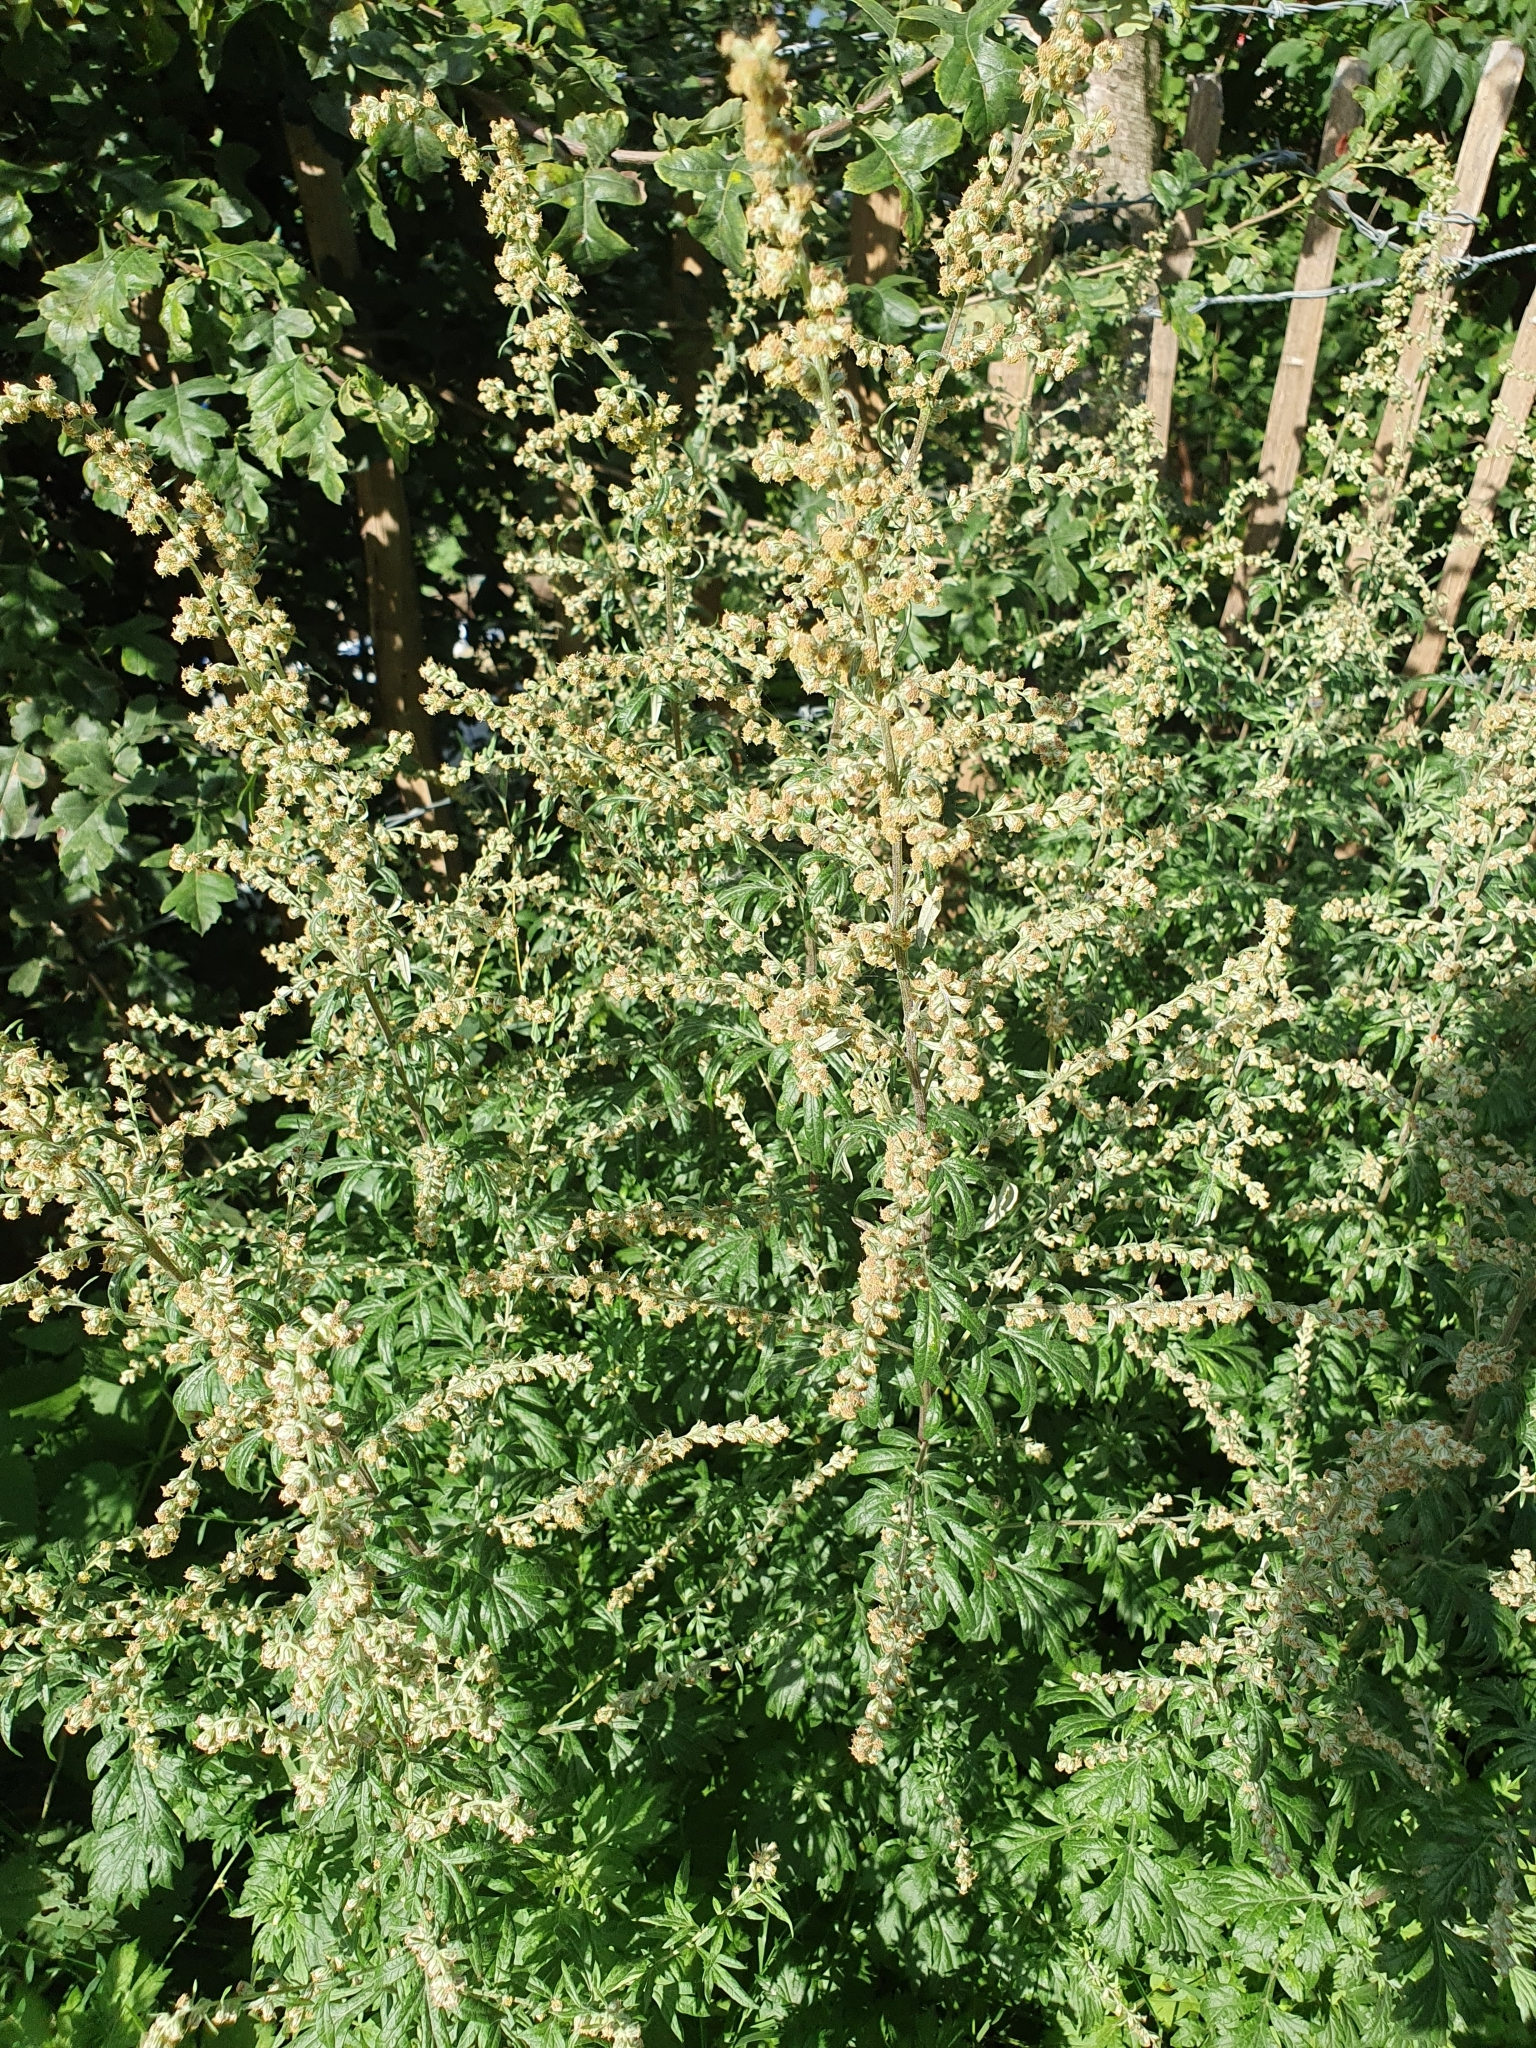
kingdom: Plantae
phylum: Tracheophyta
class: Magnoliopsida
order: Asterales
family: Asteraceae
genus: Artemisia
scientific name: Artemisia vulgaris
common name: Mugwort
